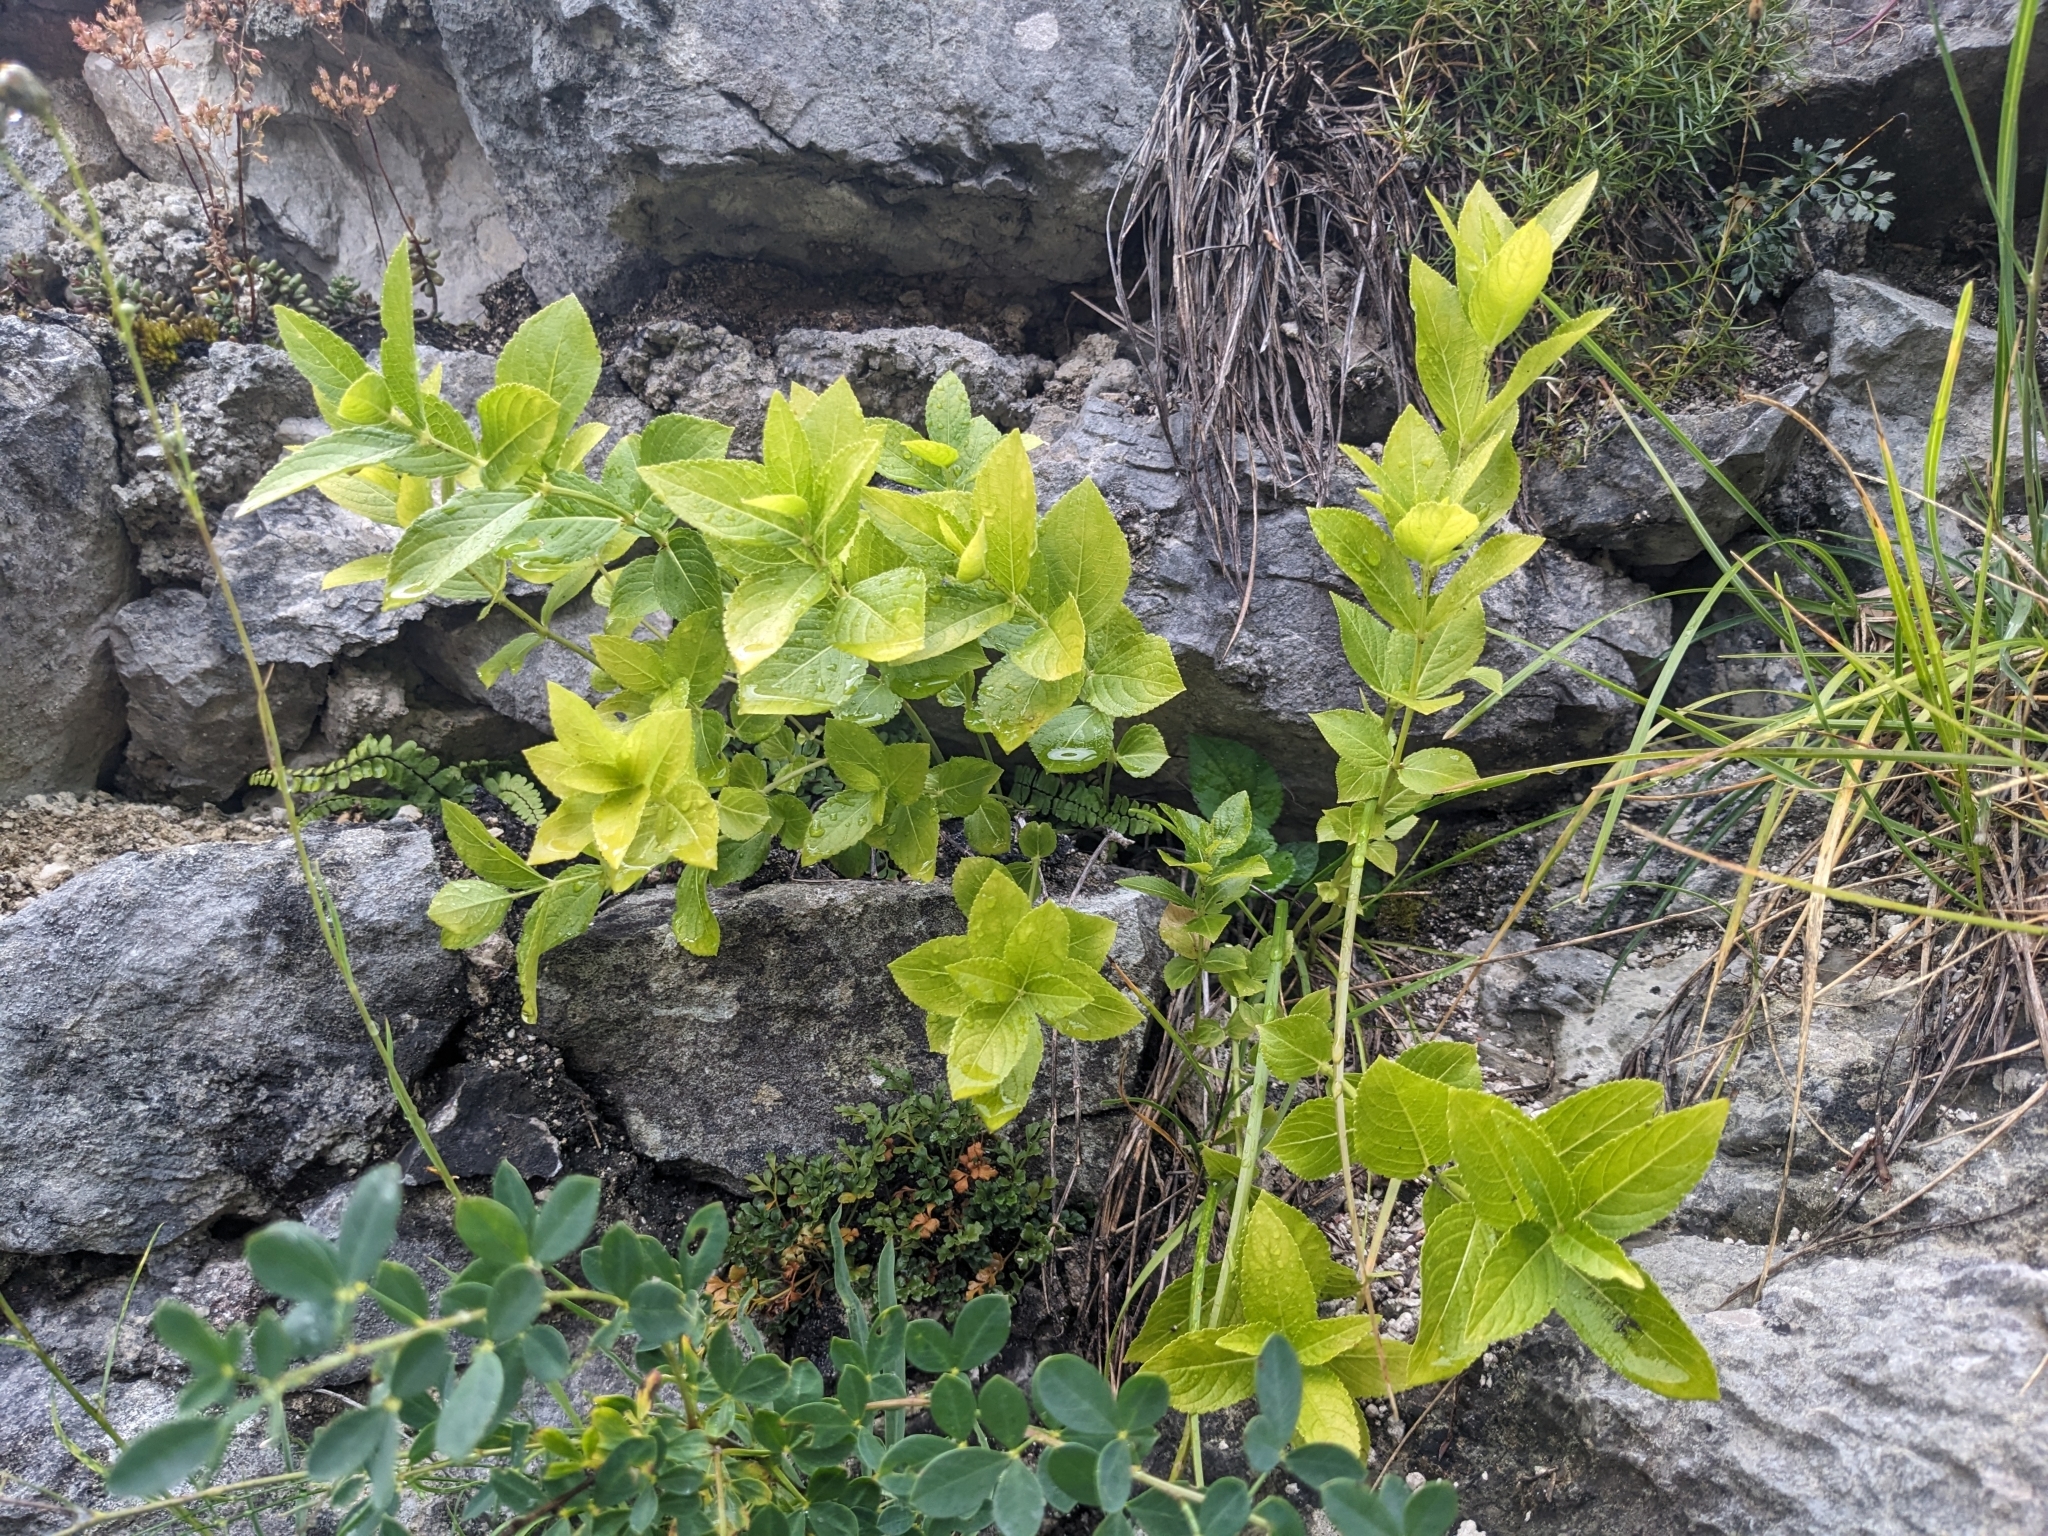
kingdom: Plantae
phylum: Tracheophyta
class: Magnoliopsida
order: Malpighiales
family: Euphorbiaceae
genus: Mercurialis
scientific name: Mercurialis ovata
